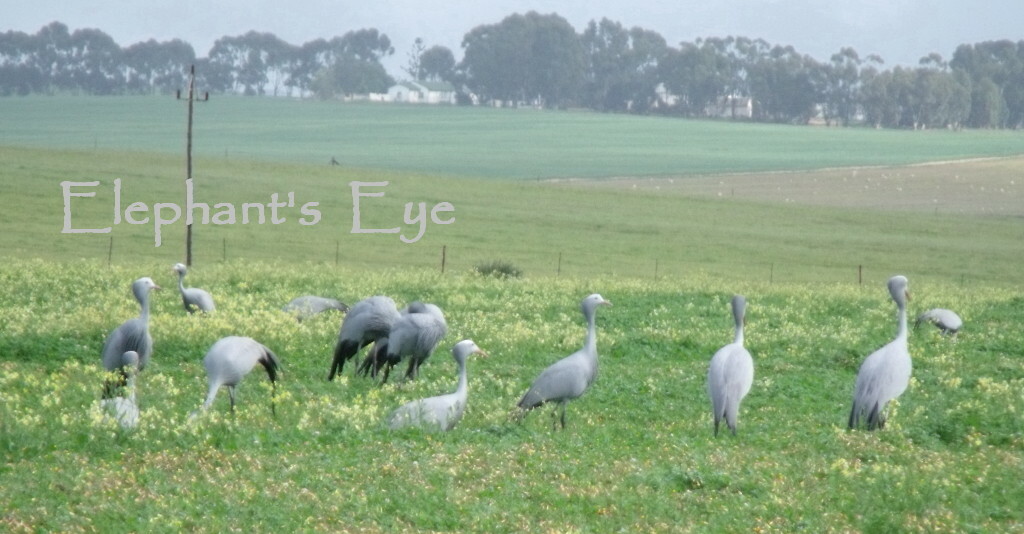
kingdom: Animalia
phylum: Chordata
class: Aves
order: Gruiformes
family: Gruidae
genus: Anthropoides
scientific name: Anthropoides paradiseus
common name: Blue crane
